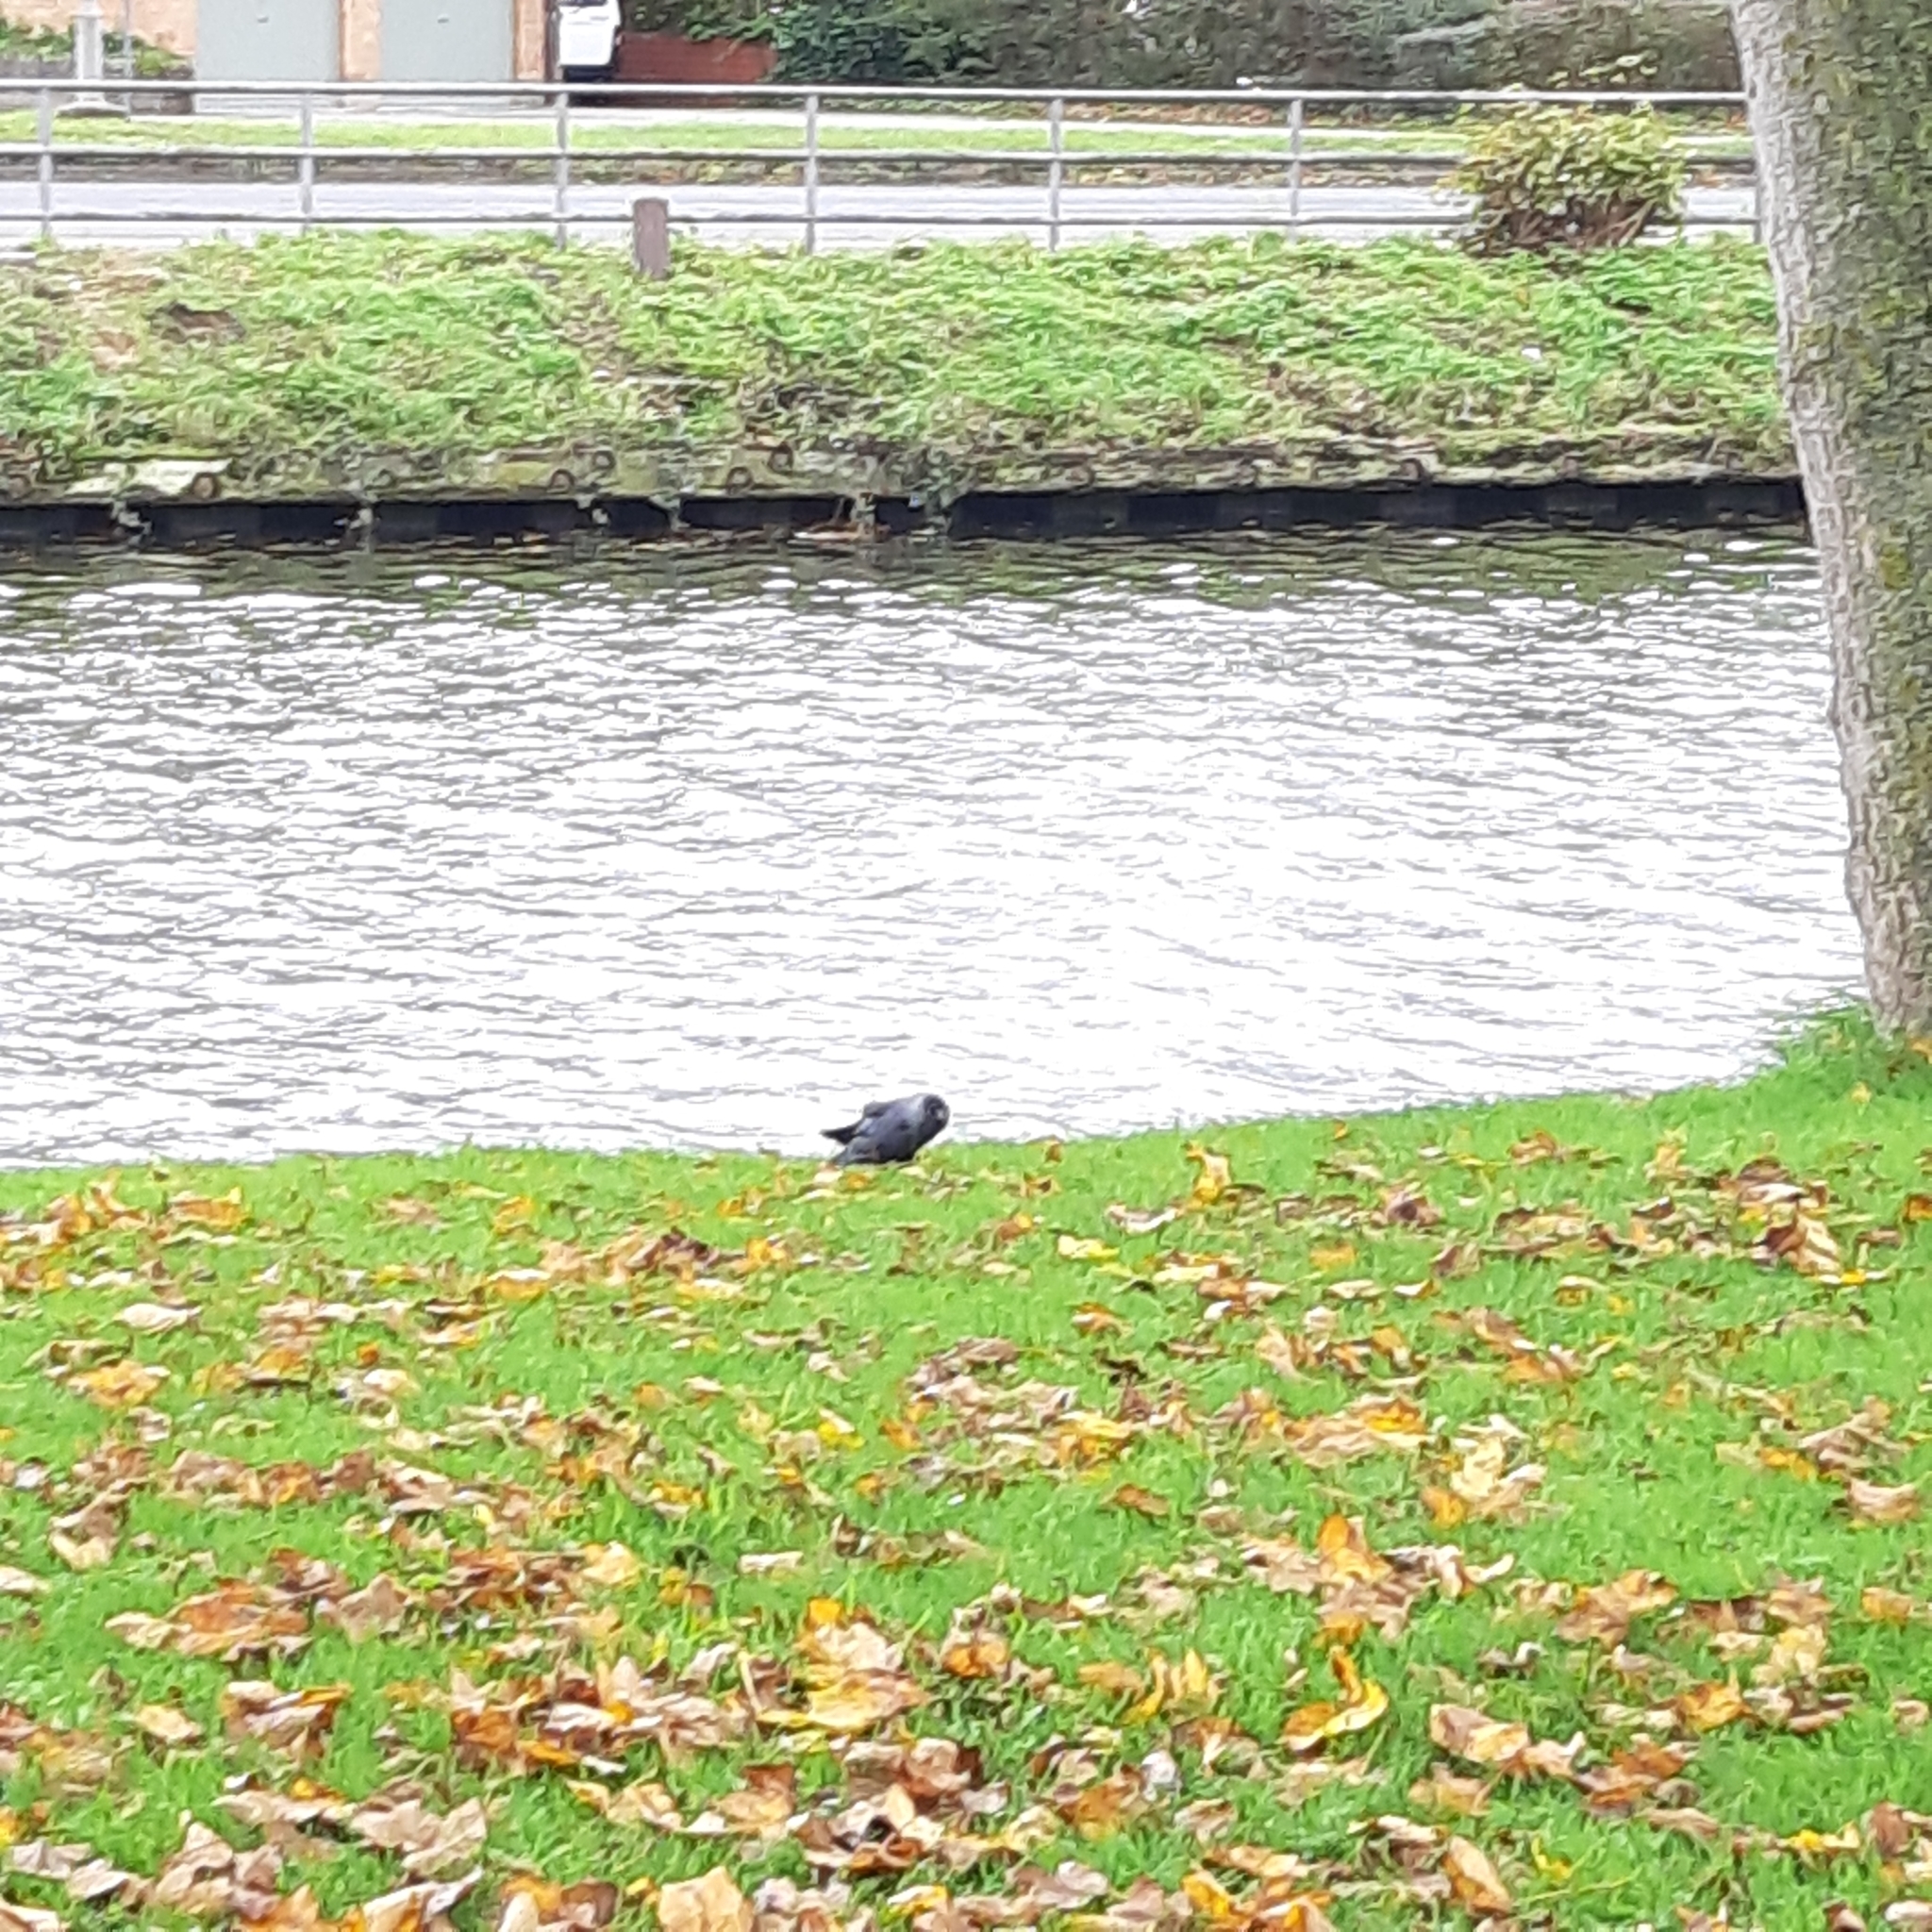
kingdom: Animalia
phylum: Chordata
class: Aves
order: Passeriformes
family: Corvidae
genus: Coloeus
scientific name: Coloeus monedula
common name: Western jackdaw
